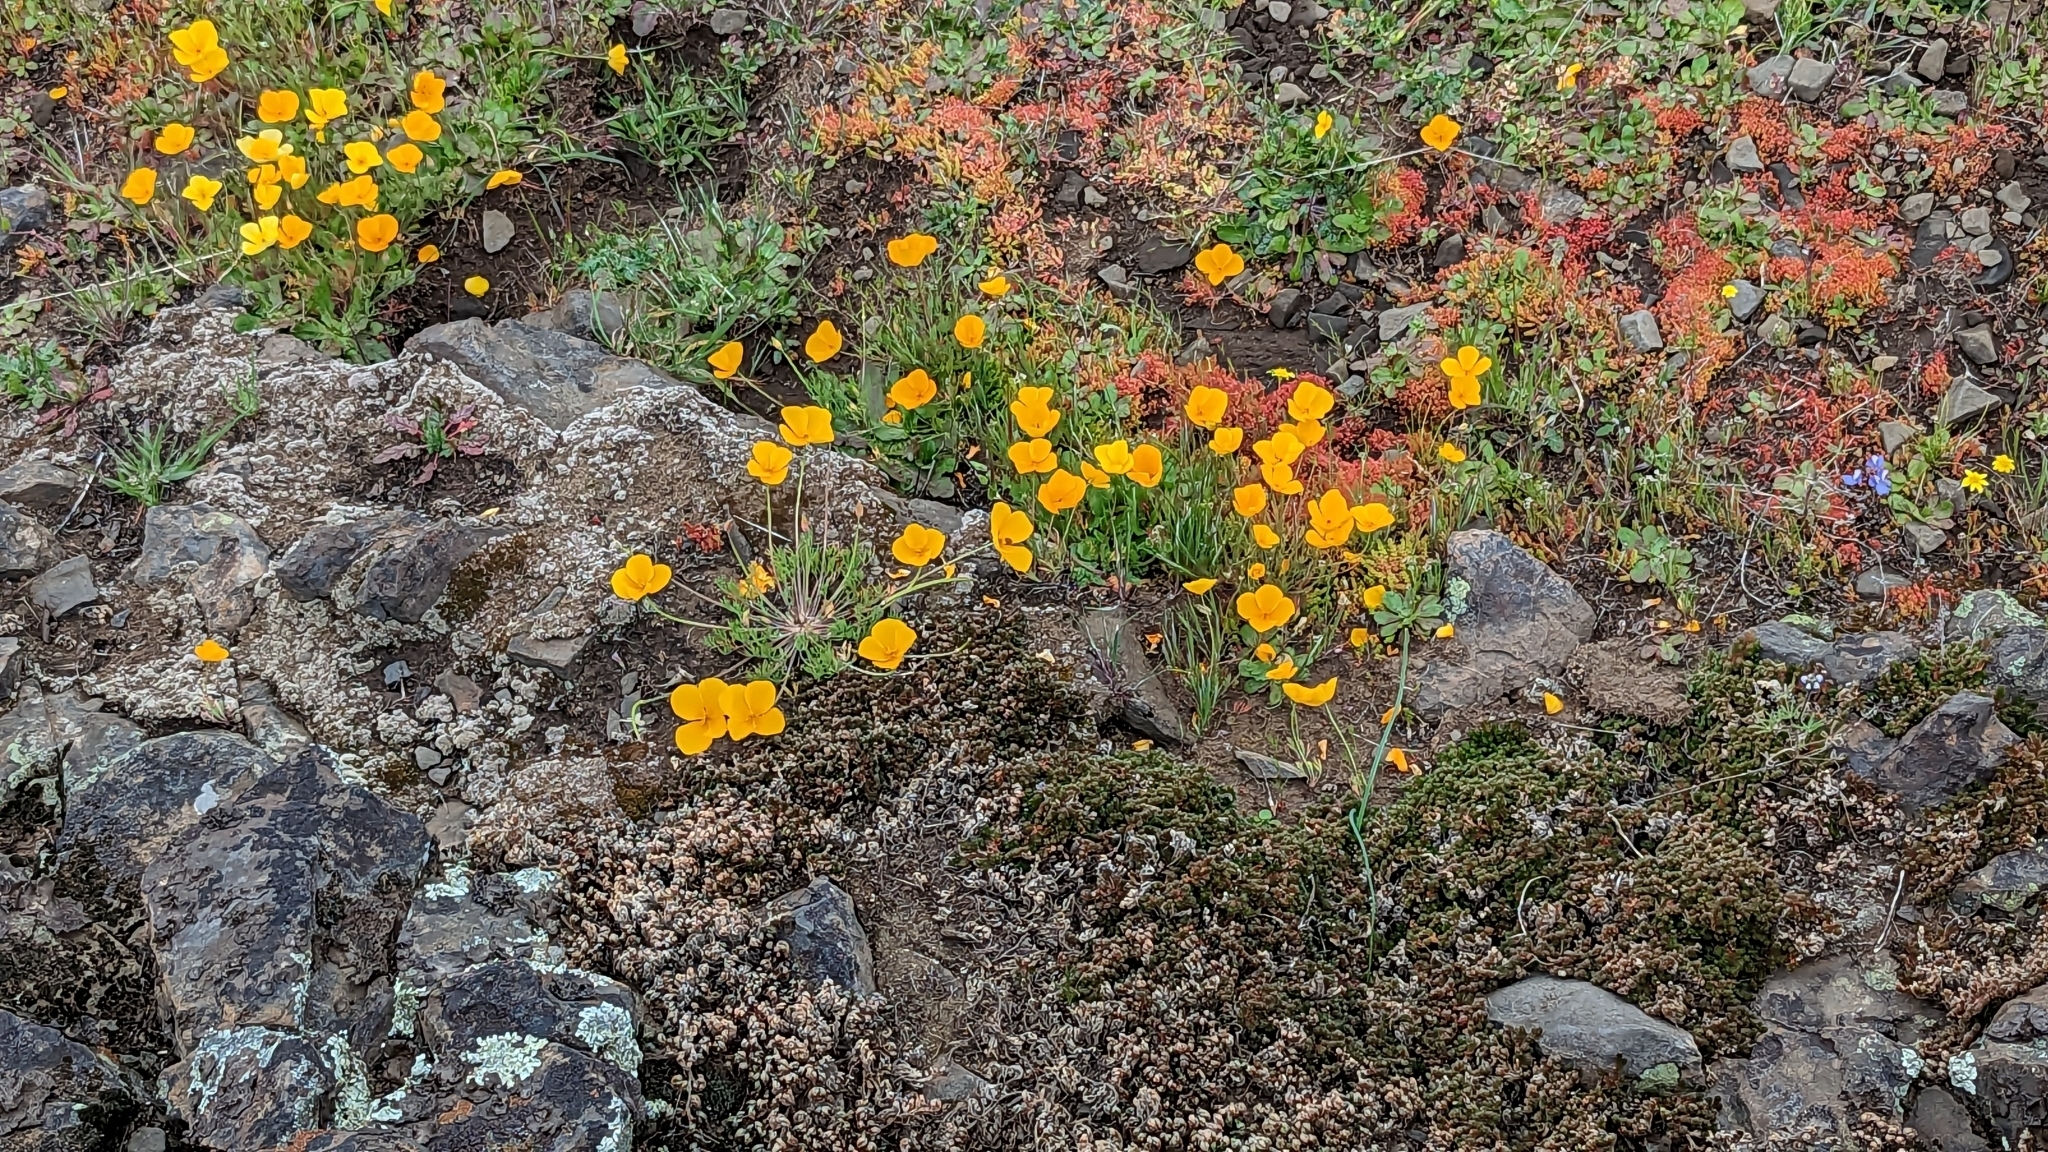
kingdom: Plantae
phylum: Tracheophyta
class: Magnoliopsida
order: Ranunculales
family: Papaveraceae
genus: Eschscholzia
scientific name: Eschscholzia lobbii
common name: Frying-pans
